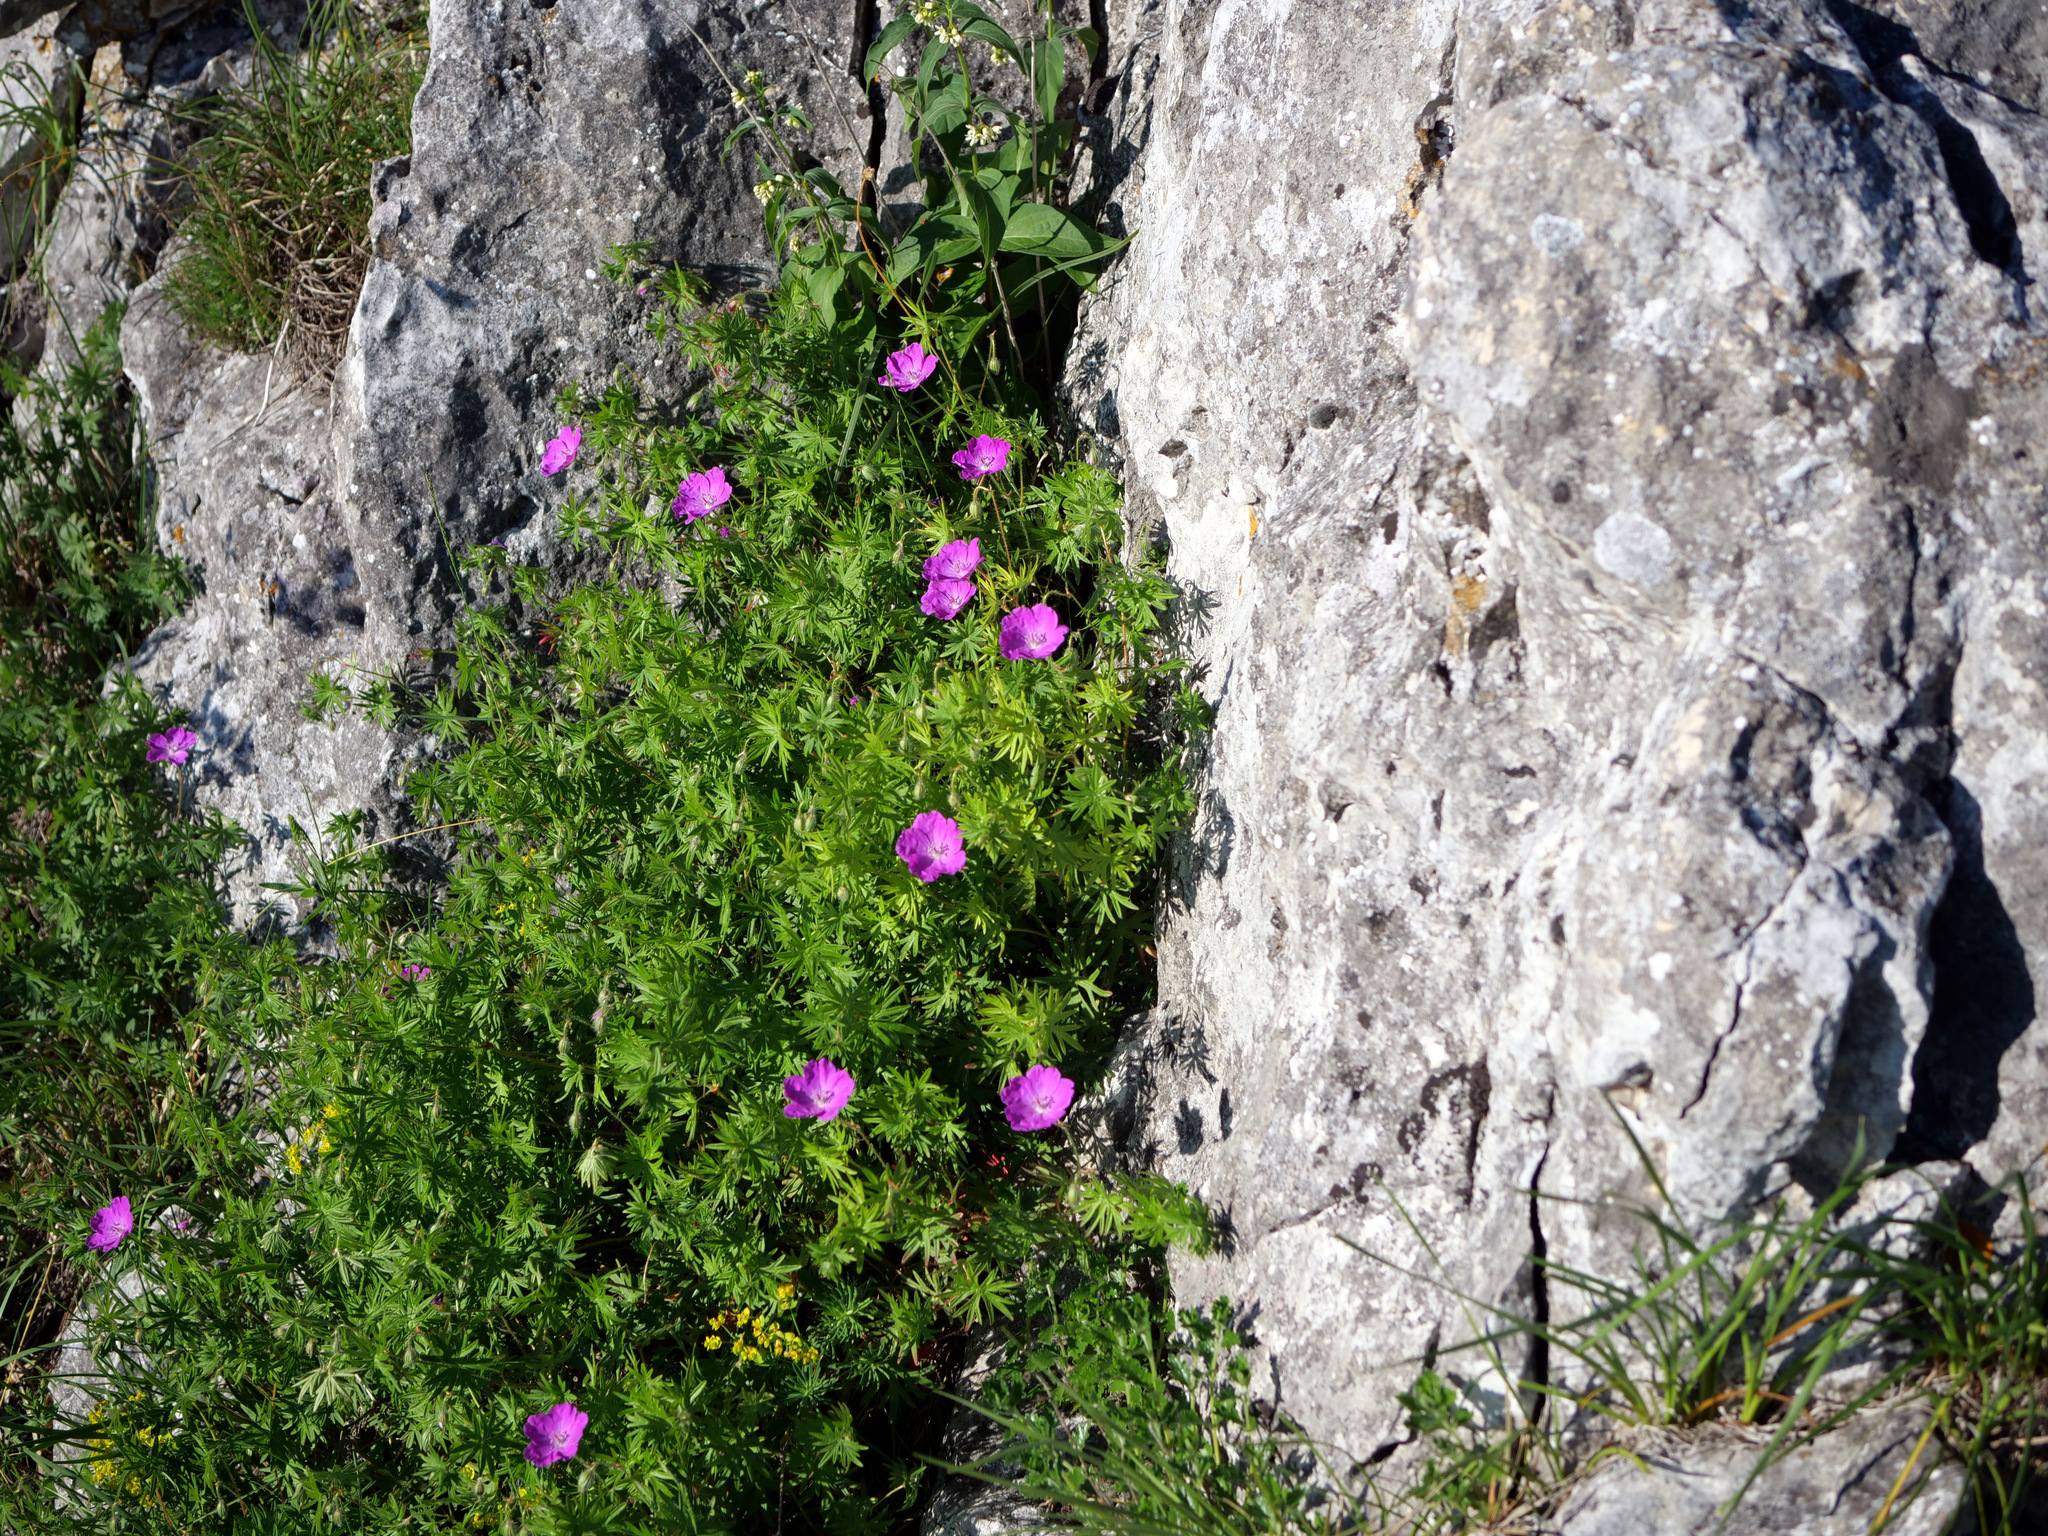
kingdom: Plantae
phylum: Tracheophyta
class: Magnoliopsida
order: Geraniales
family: Geraniaceae
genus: Geranium
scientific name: Geranium sanguineum
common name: Bloody crane's-bill
